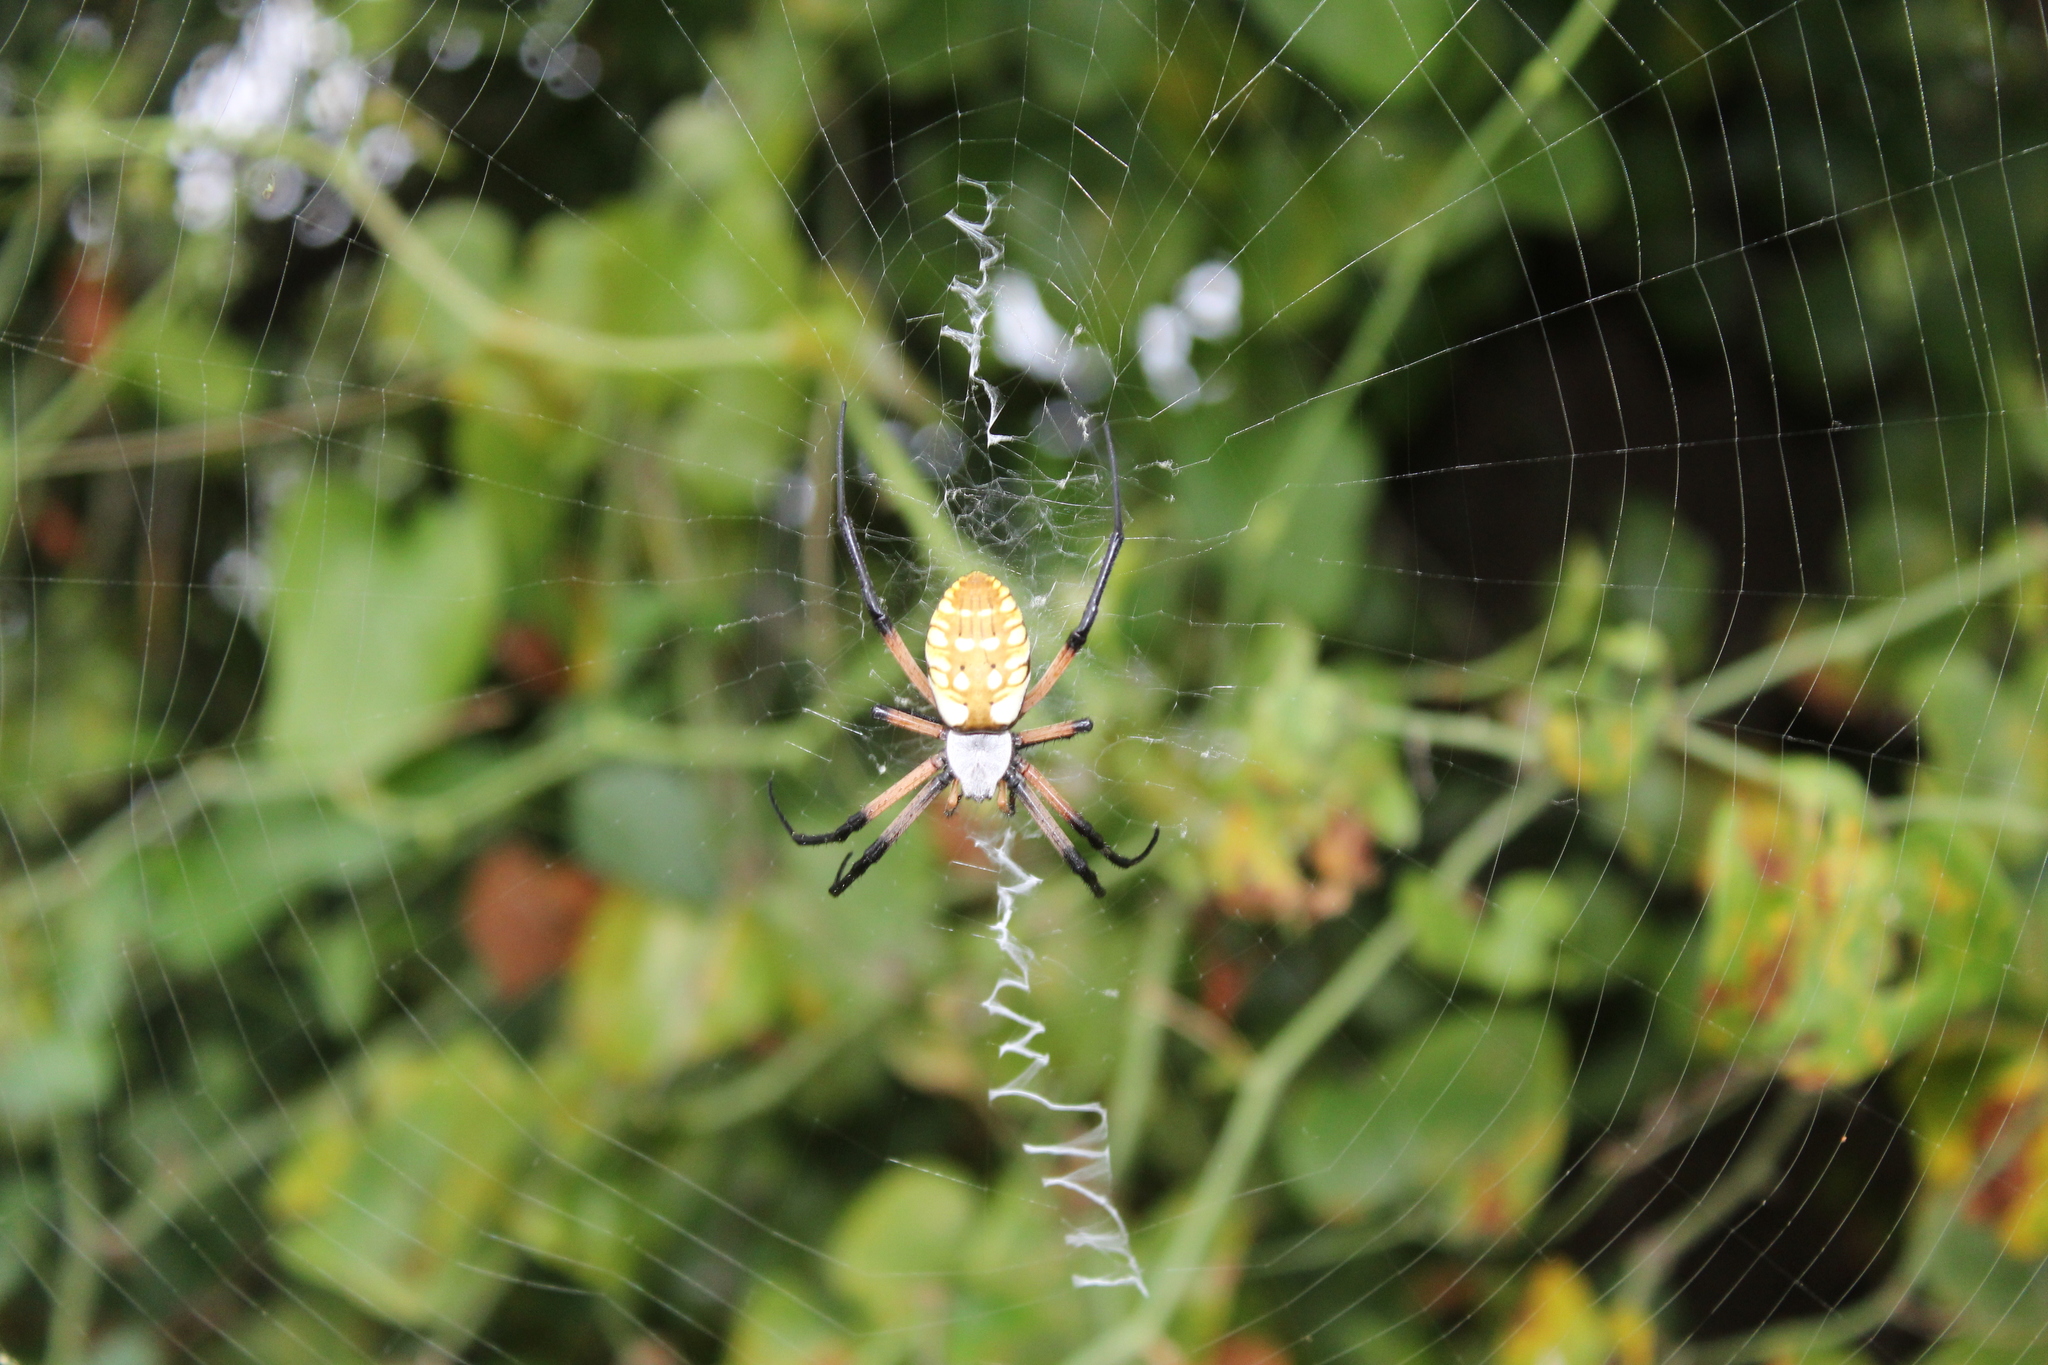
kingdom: Animalia
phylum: Arthropoda
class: Arachnida
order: Araneae
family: Araneidae
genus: Argiope
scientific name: Argiope aurantia
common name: Orb weavers
